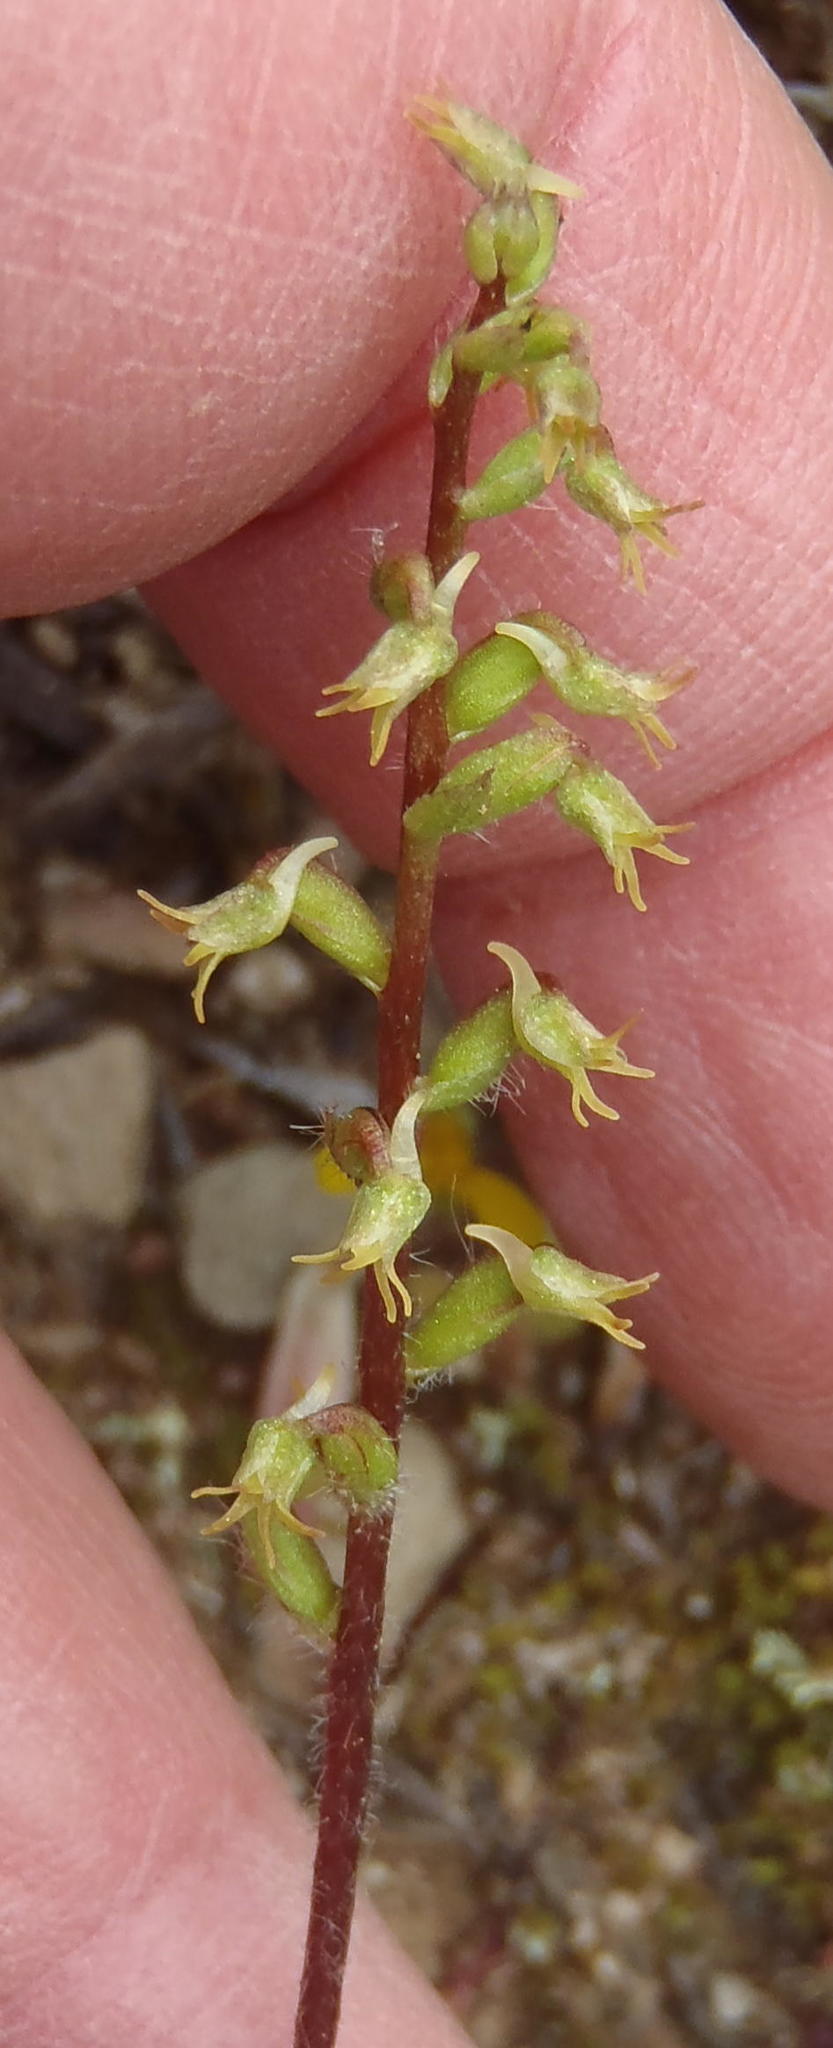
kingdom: Plantae
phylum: Tracheophyta
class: Liliopsida
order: Asparagales
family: Orchidaceae
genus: Holothrix
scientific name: Holothrix villosa
